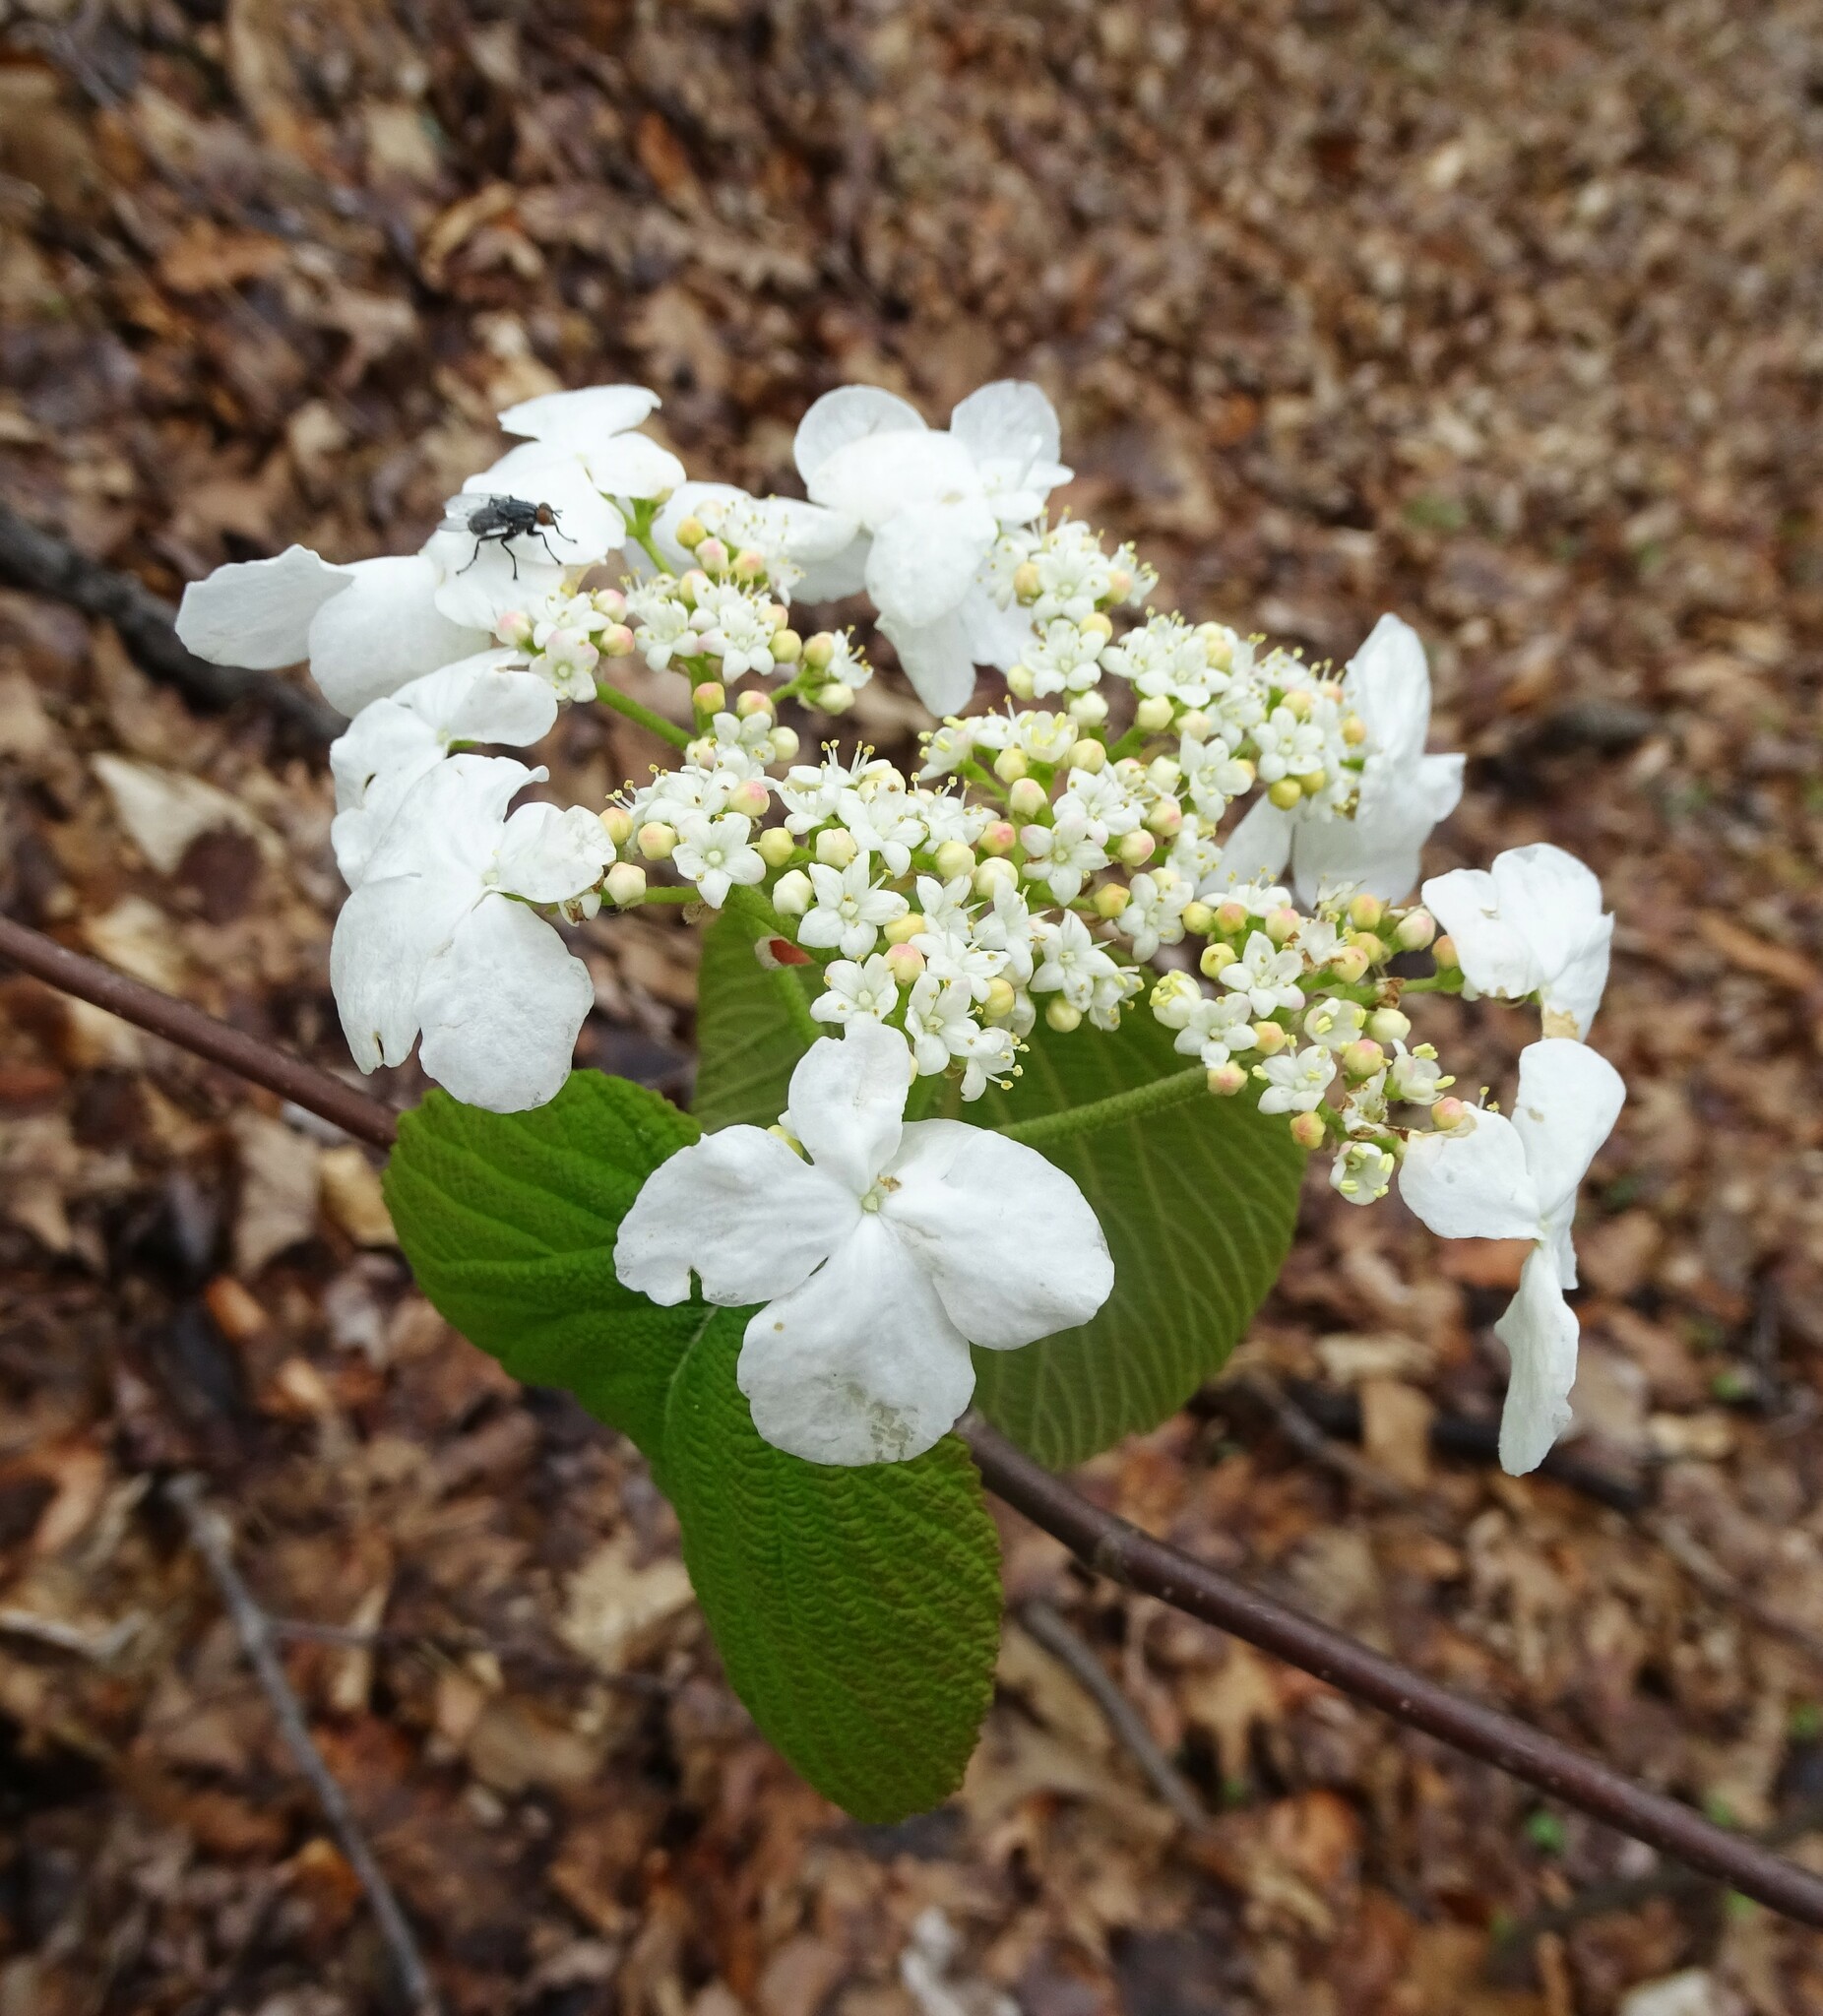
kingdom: Plantae
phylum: Tracheophyta
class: Magnoliopsida
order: Dipsacales
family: Viburnaceae
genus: Viburnum
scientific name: Viburnum lantanoides
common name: Hobblebush
